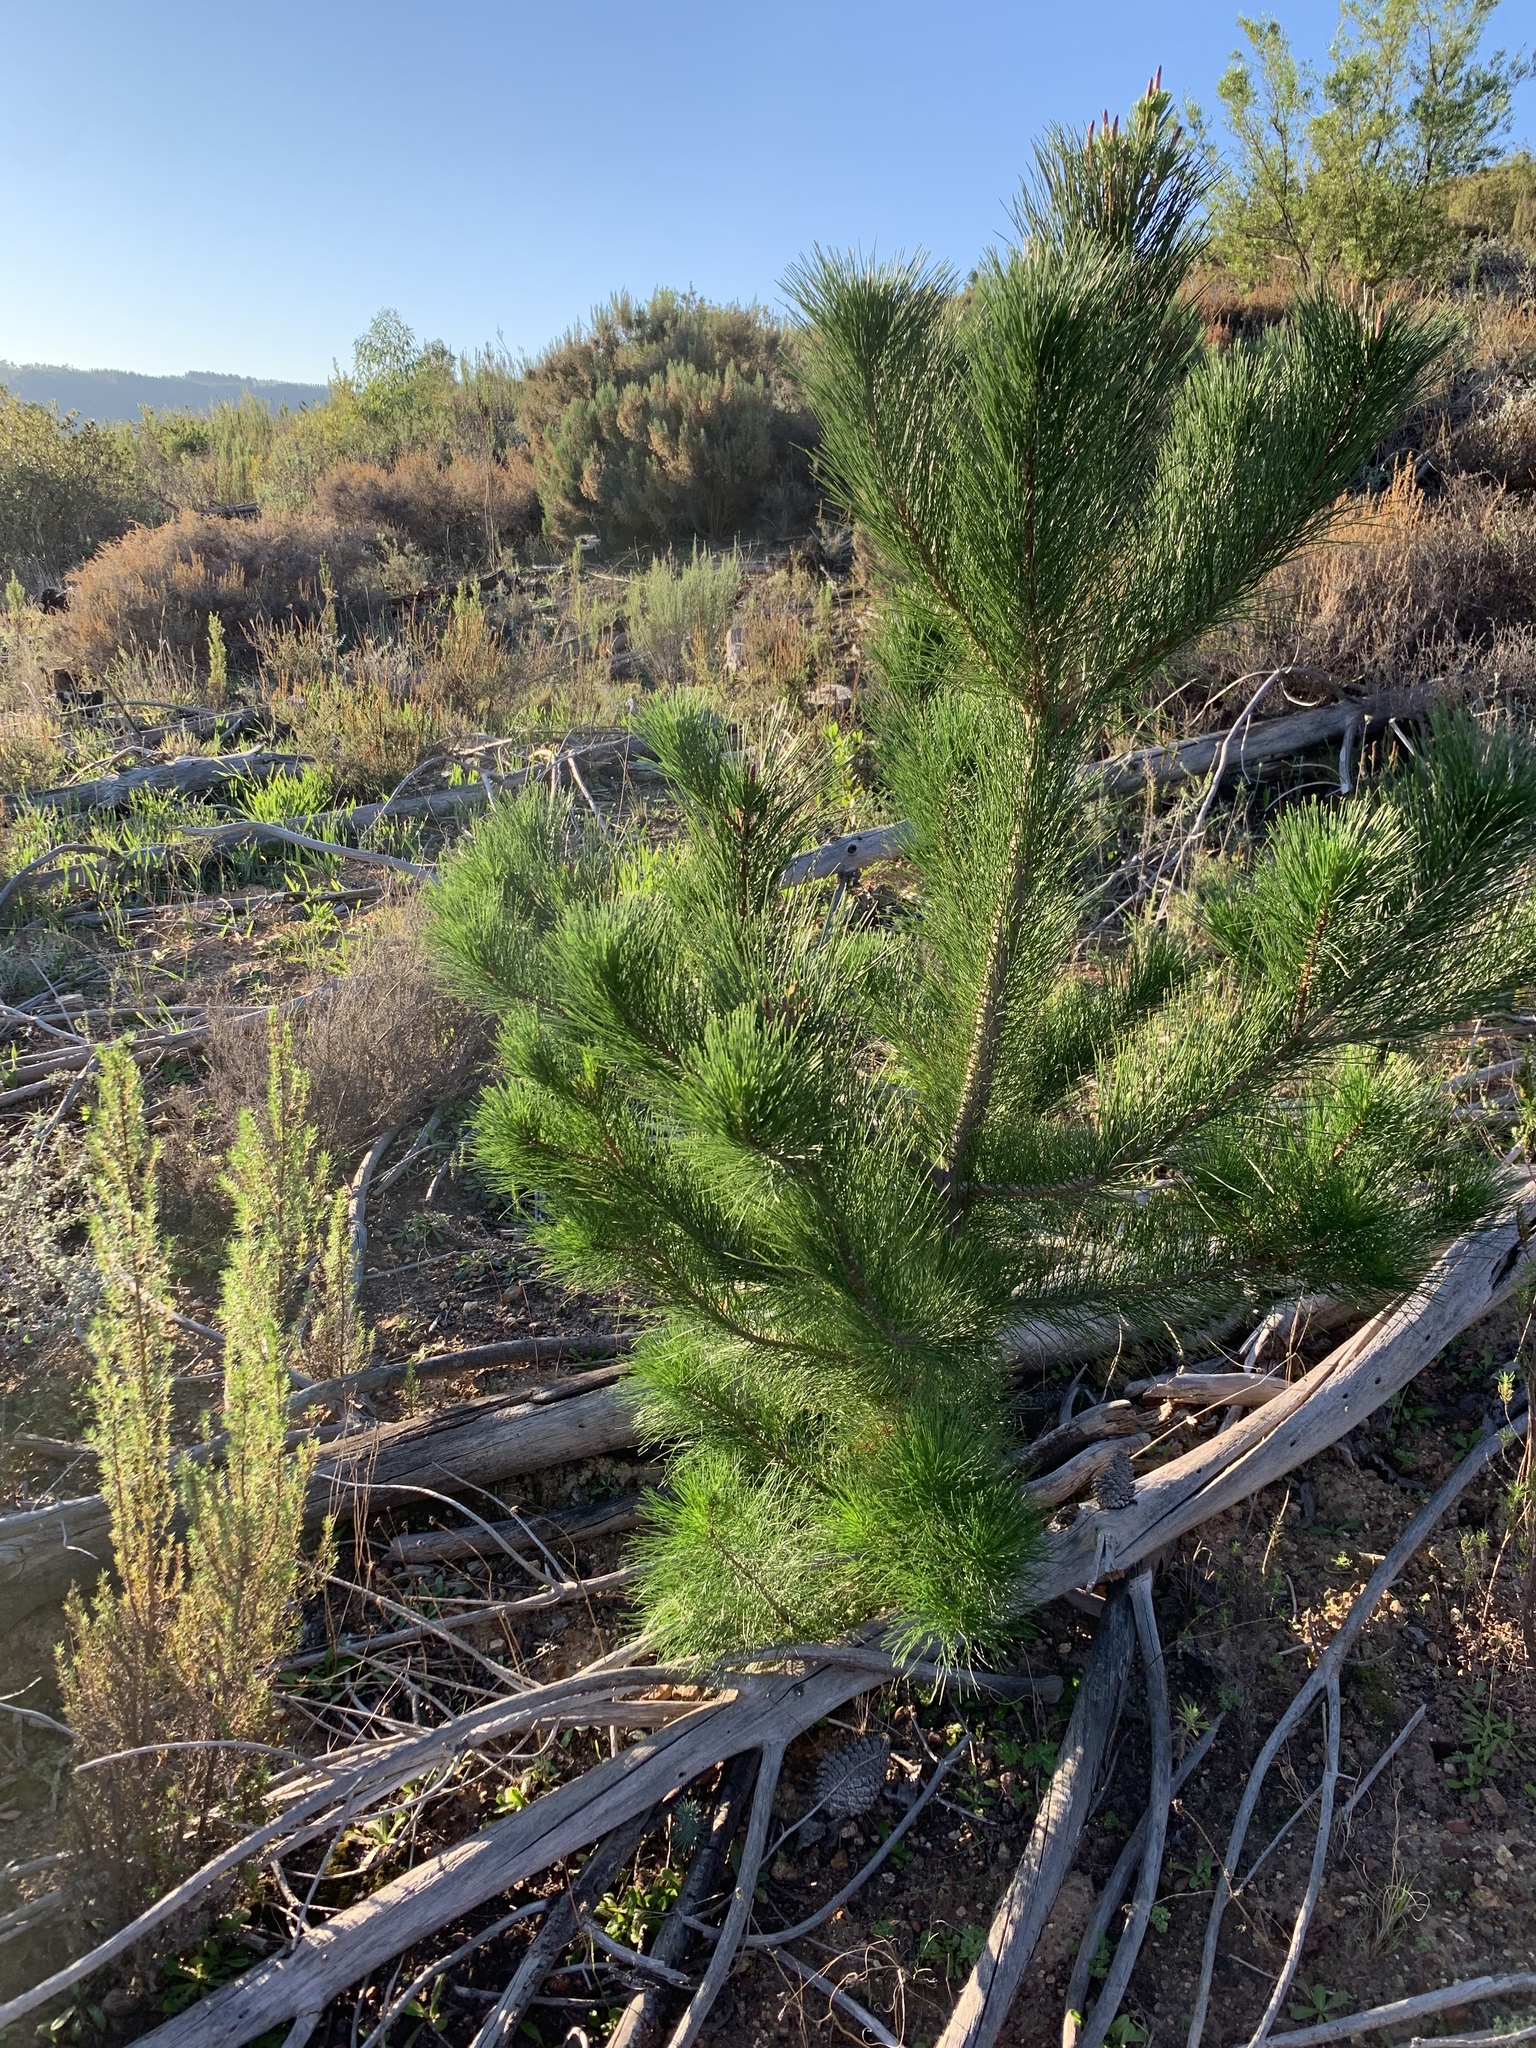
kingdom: Plantae
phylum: Tracheophyta
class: Pinopsida
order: Pinales
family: Pinaceae
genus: Pinus
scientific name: Pinus radiata
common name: Monterey pine
